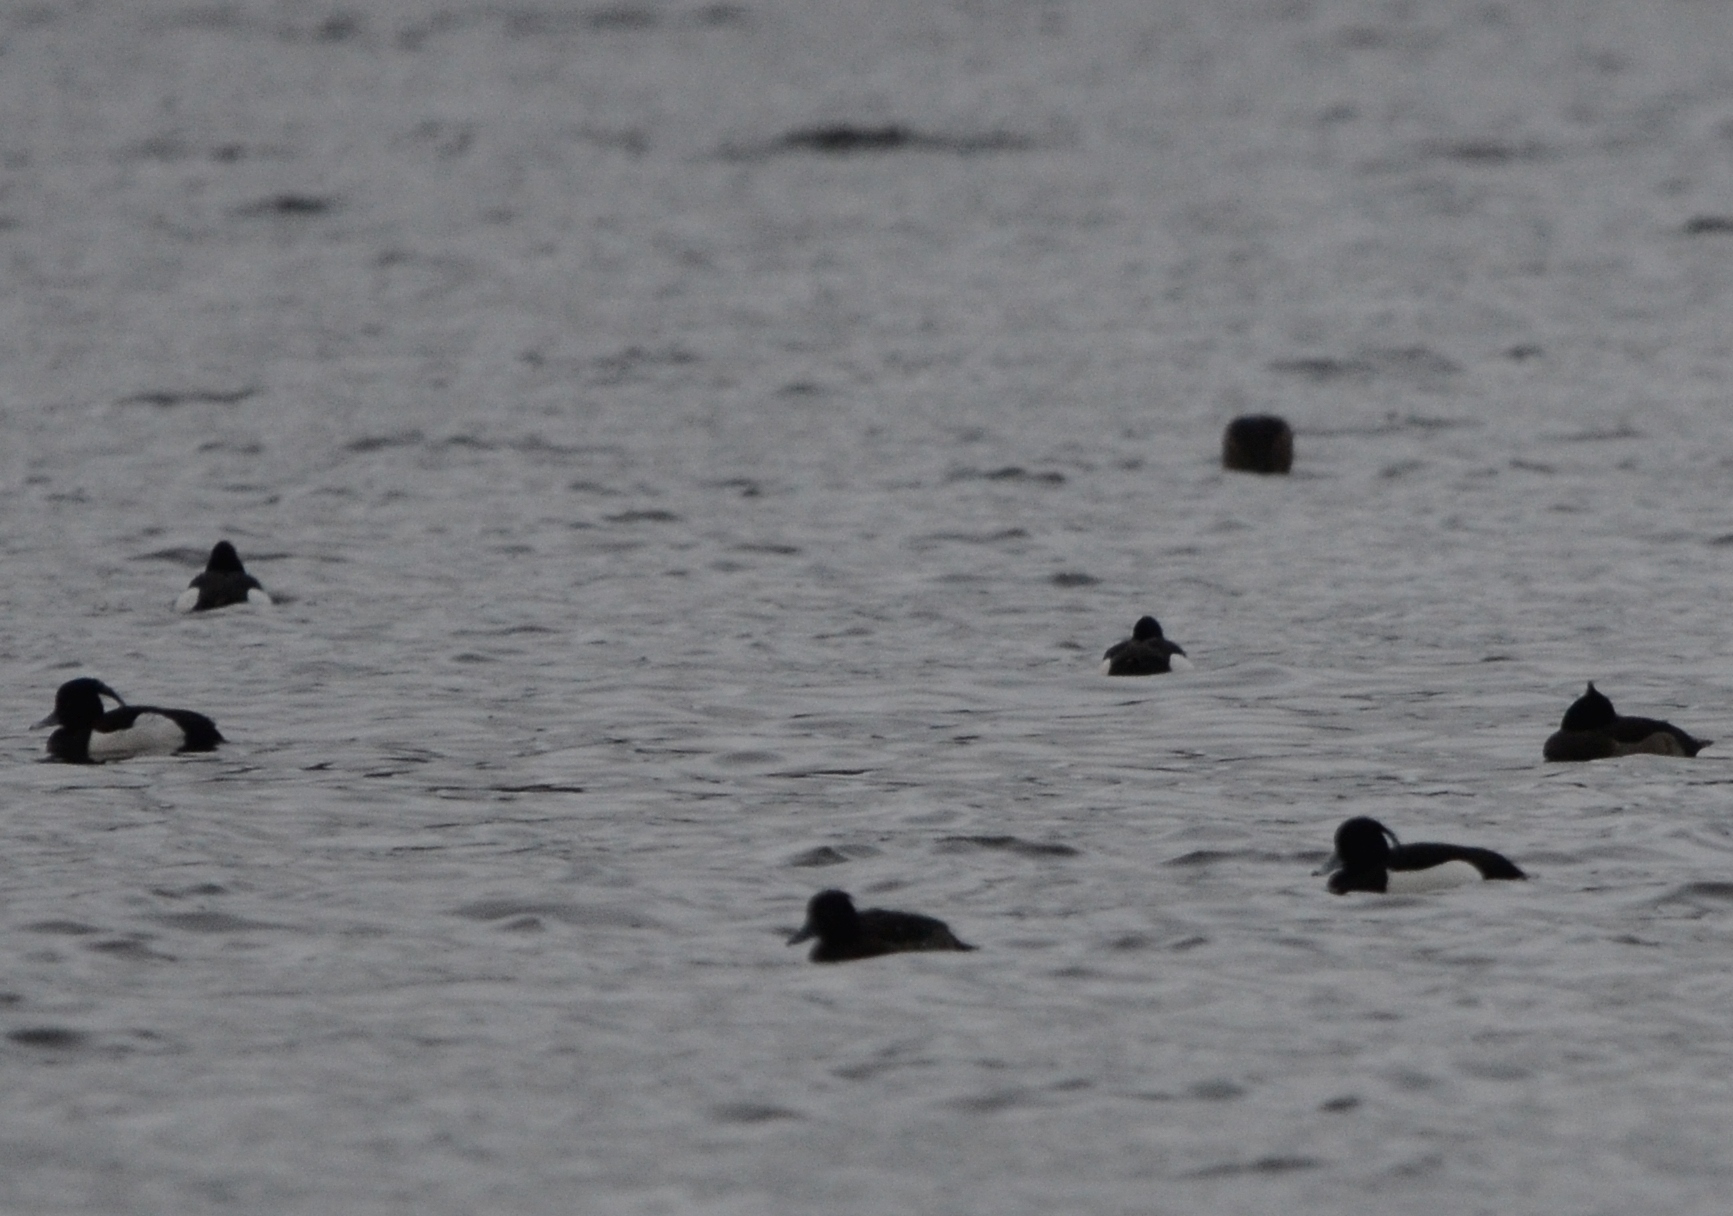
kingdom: Animalia
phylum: Chordata
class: Aves
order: Anseriformes
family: Anatidae
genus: Aythya
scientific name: Aythya fuligula
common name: Tufted duck
